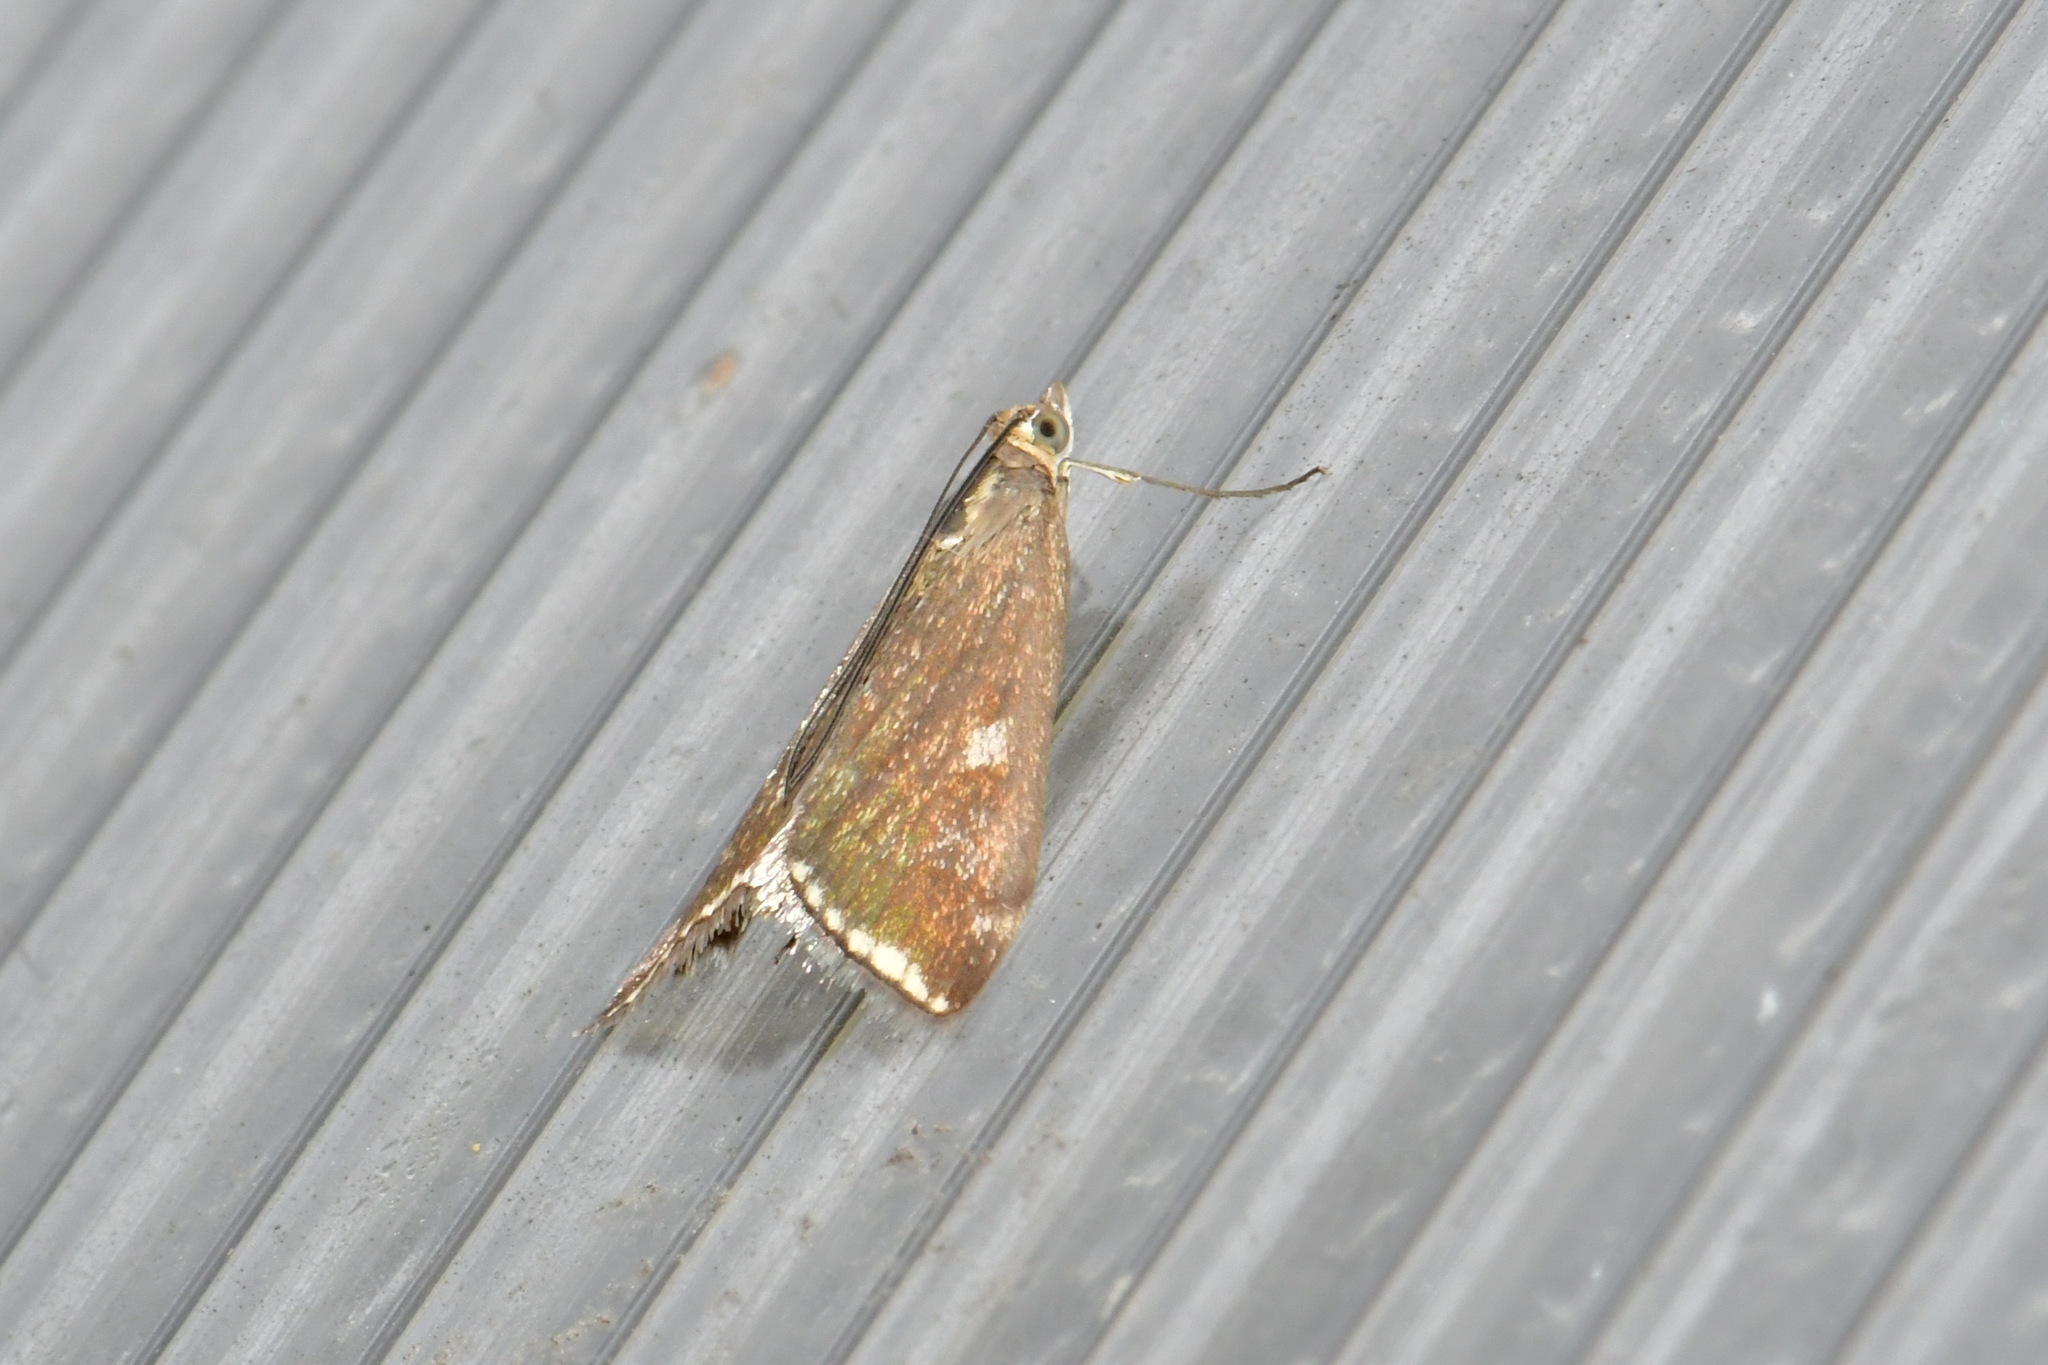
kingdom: Animalia
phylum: Arthropoda
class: Insecta
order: Lepidoptera
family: Crambidae
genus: Loxostege
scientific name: Loxostege sticticalis
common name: Crambid moth
